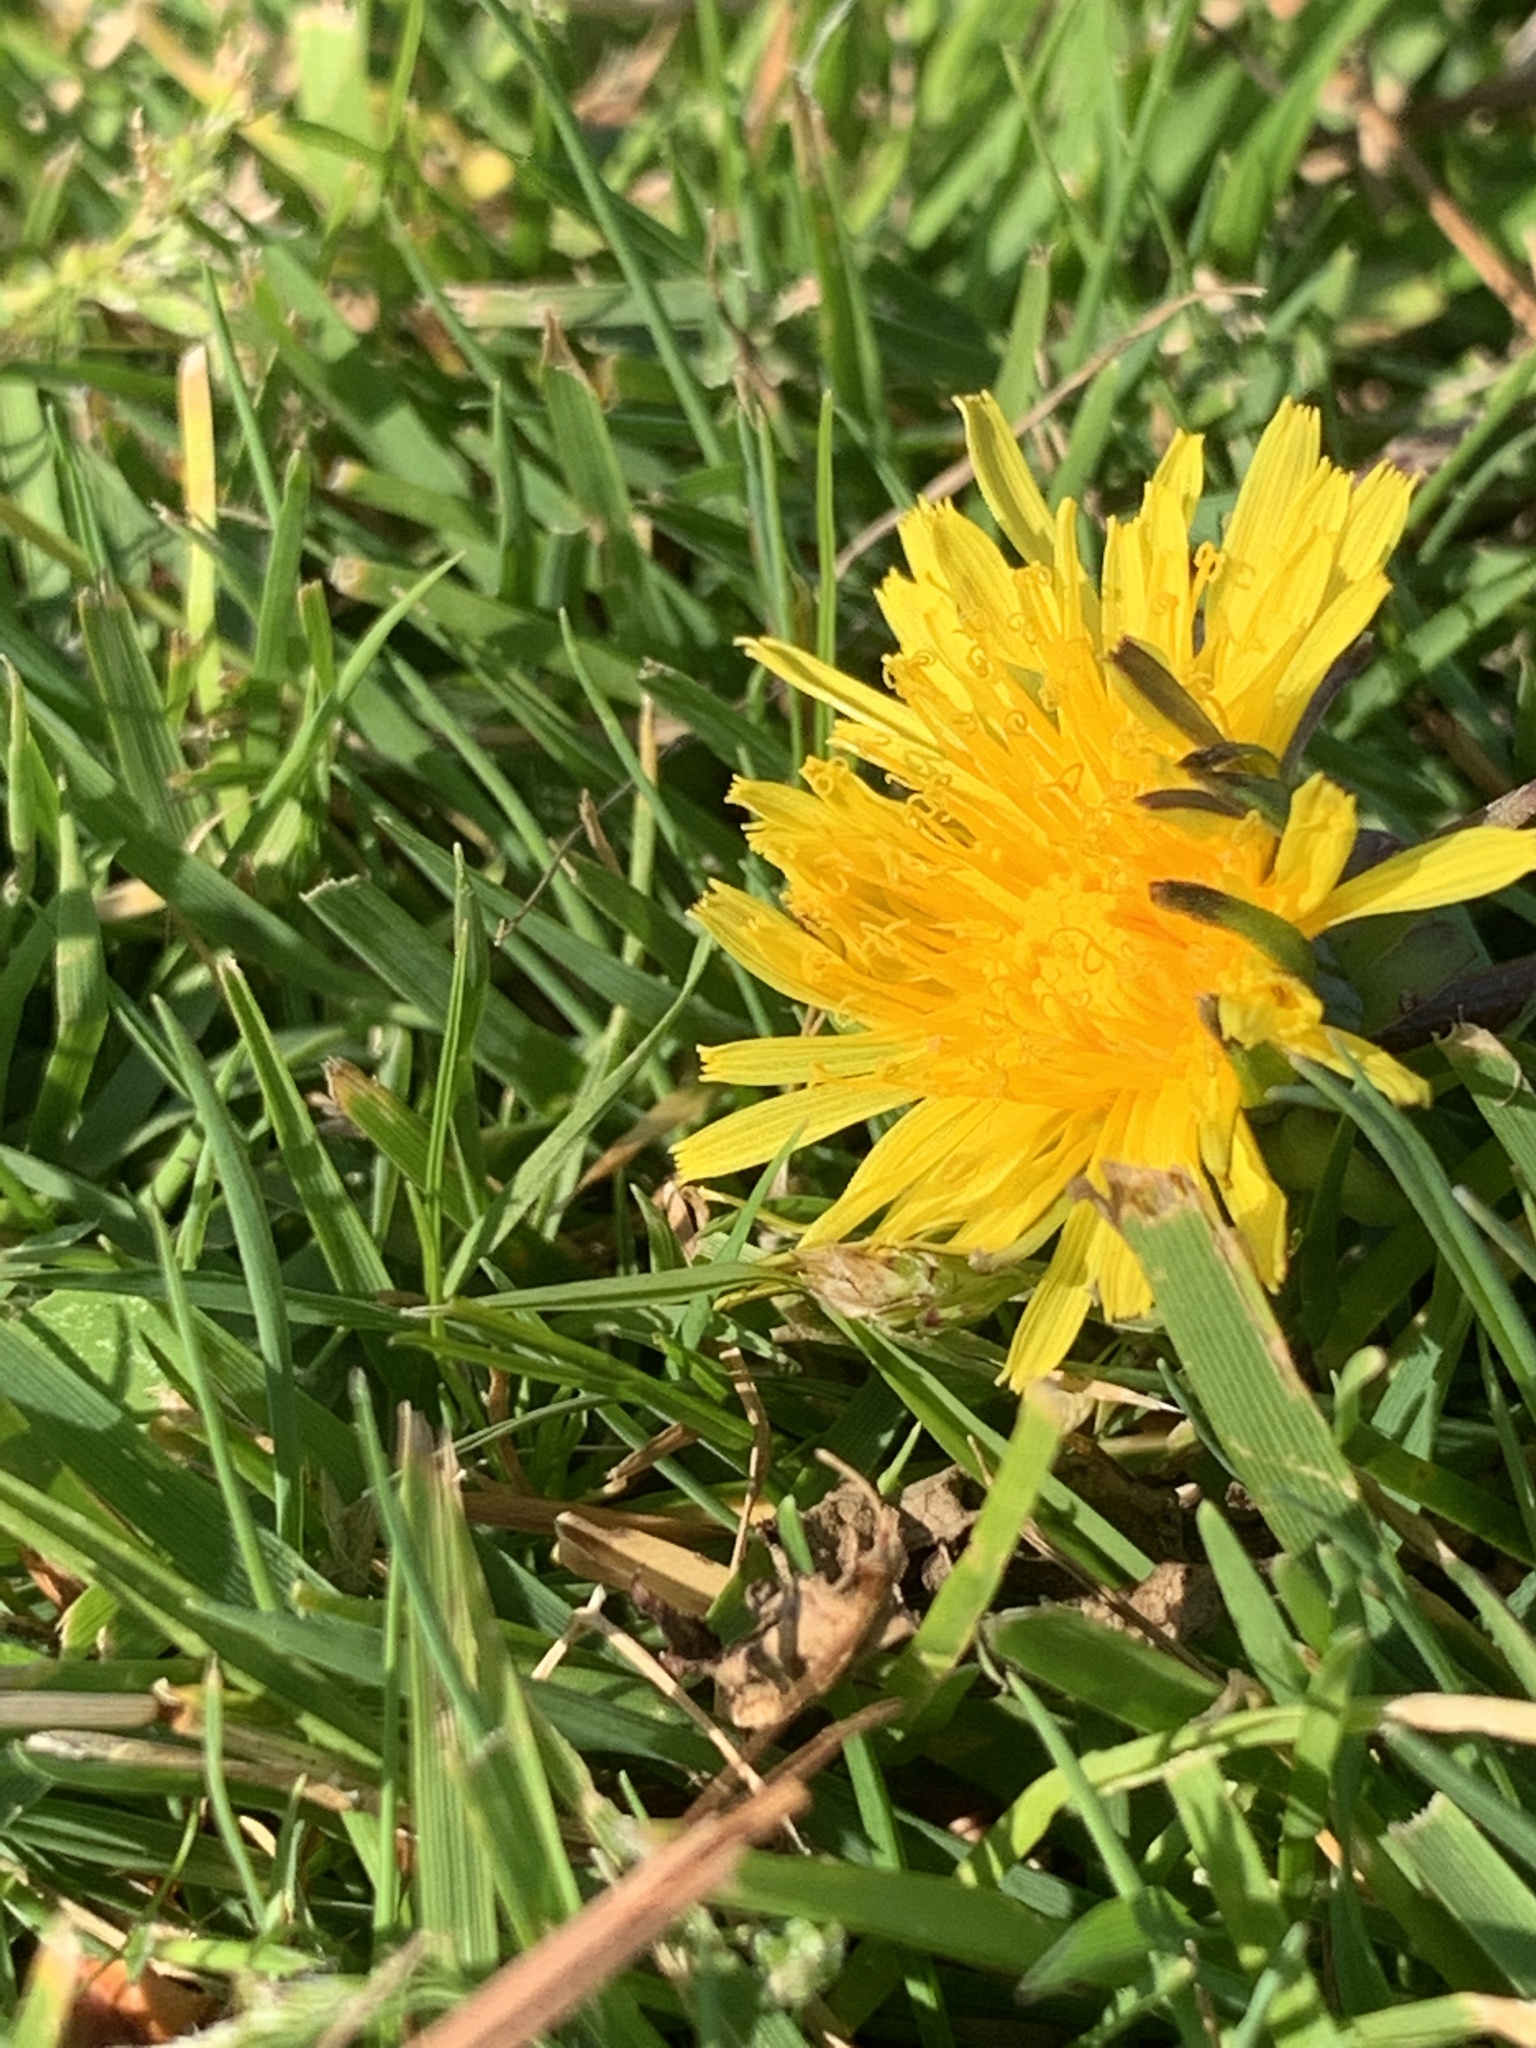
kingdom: Plantae
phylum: Tracheophyta
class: Magnoliopsida
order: Asterales
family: Asteraceae
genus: Taraxacum
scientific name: Taraxacum officinale
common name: Common dandelion
